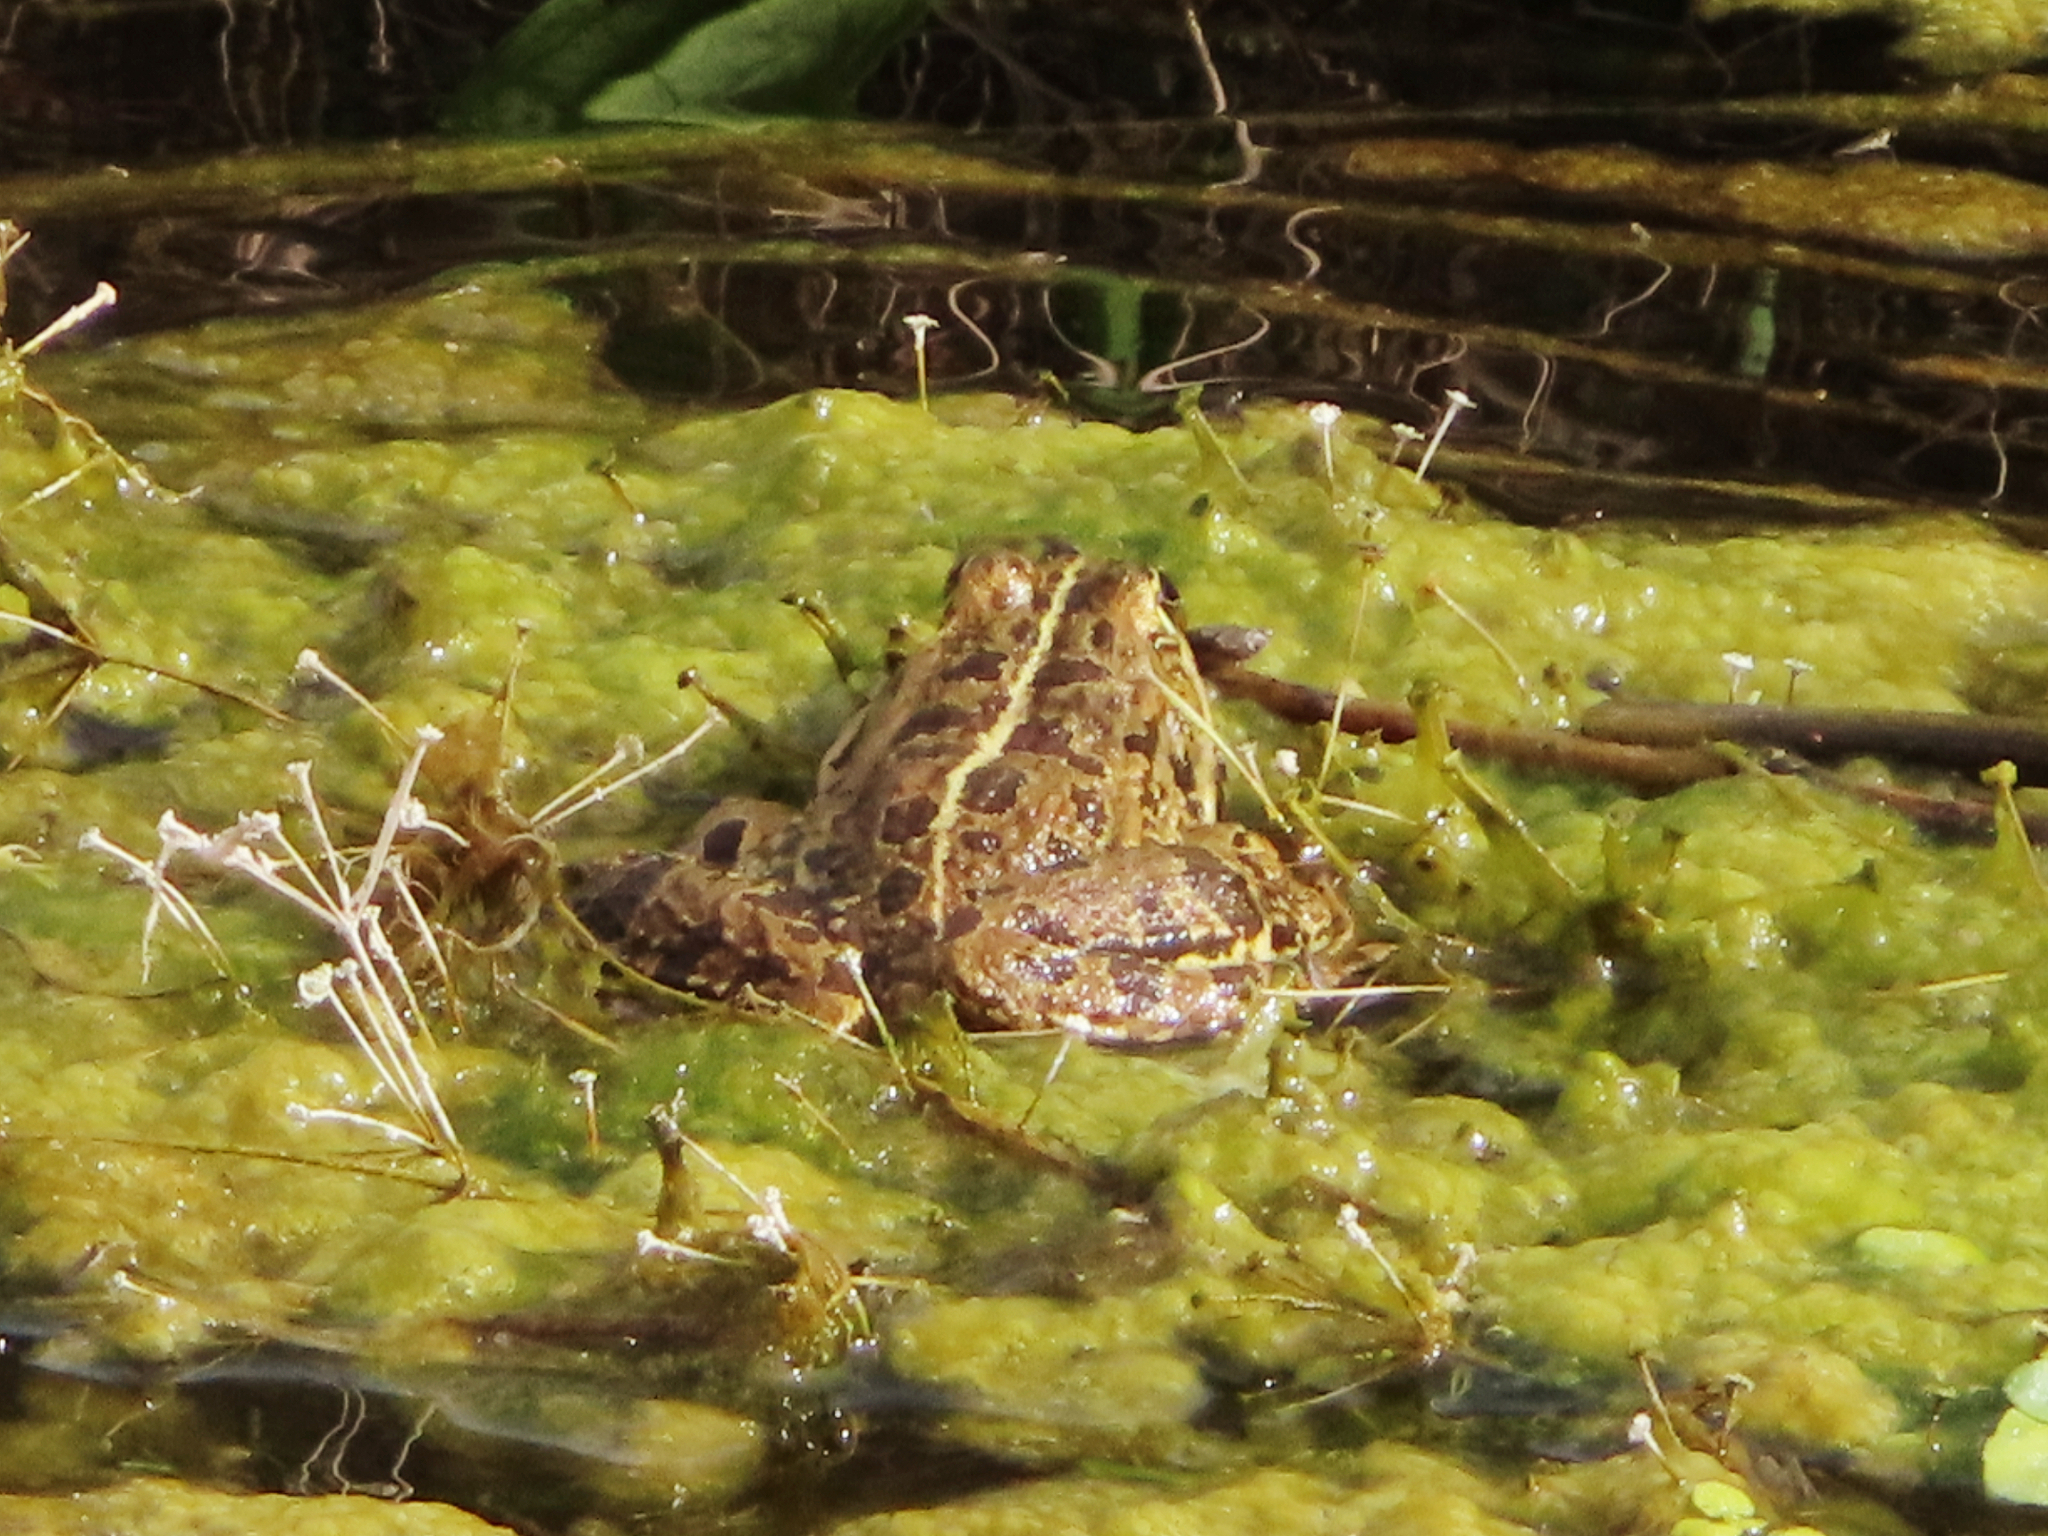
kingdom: Animalia
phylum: Chordata
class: Amphibia
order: Anura
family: Ranidae
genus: Pelophylax
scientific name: Pelophylax ridibundus
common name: Marsh frog
